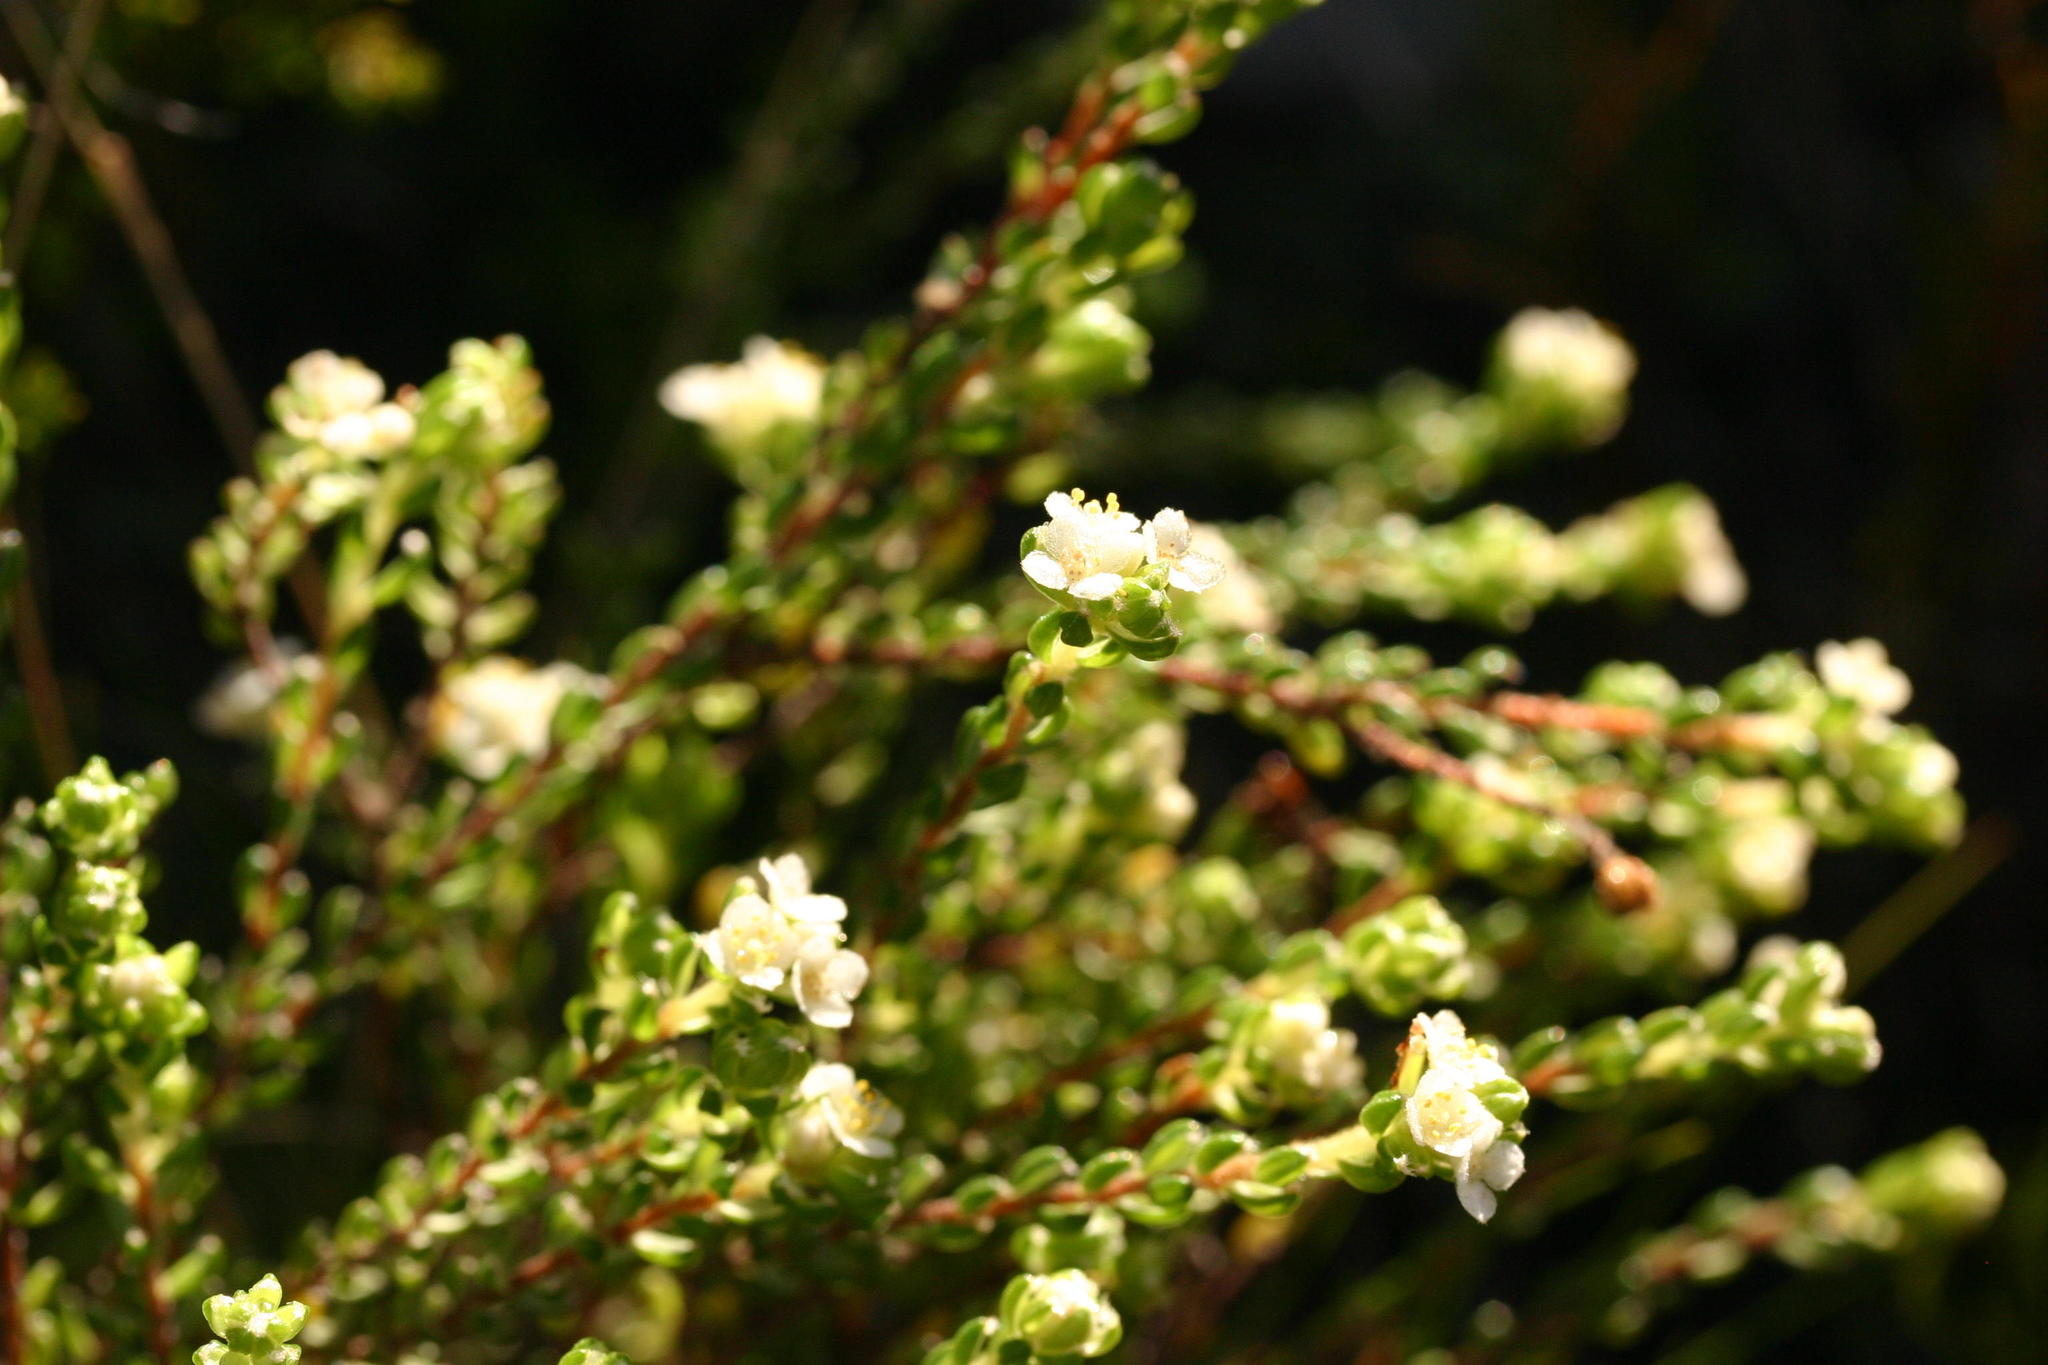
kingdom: Plantae
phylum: Tracheophyta
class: Magnoliopsida
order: Malvales
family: Thymelaeaceae
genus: Lachnaea
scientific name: Lachnaea ericoides
